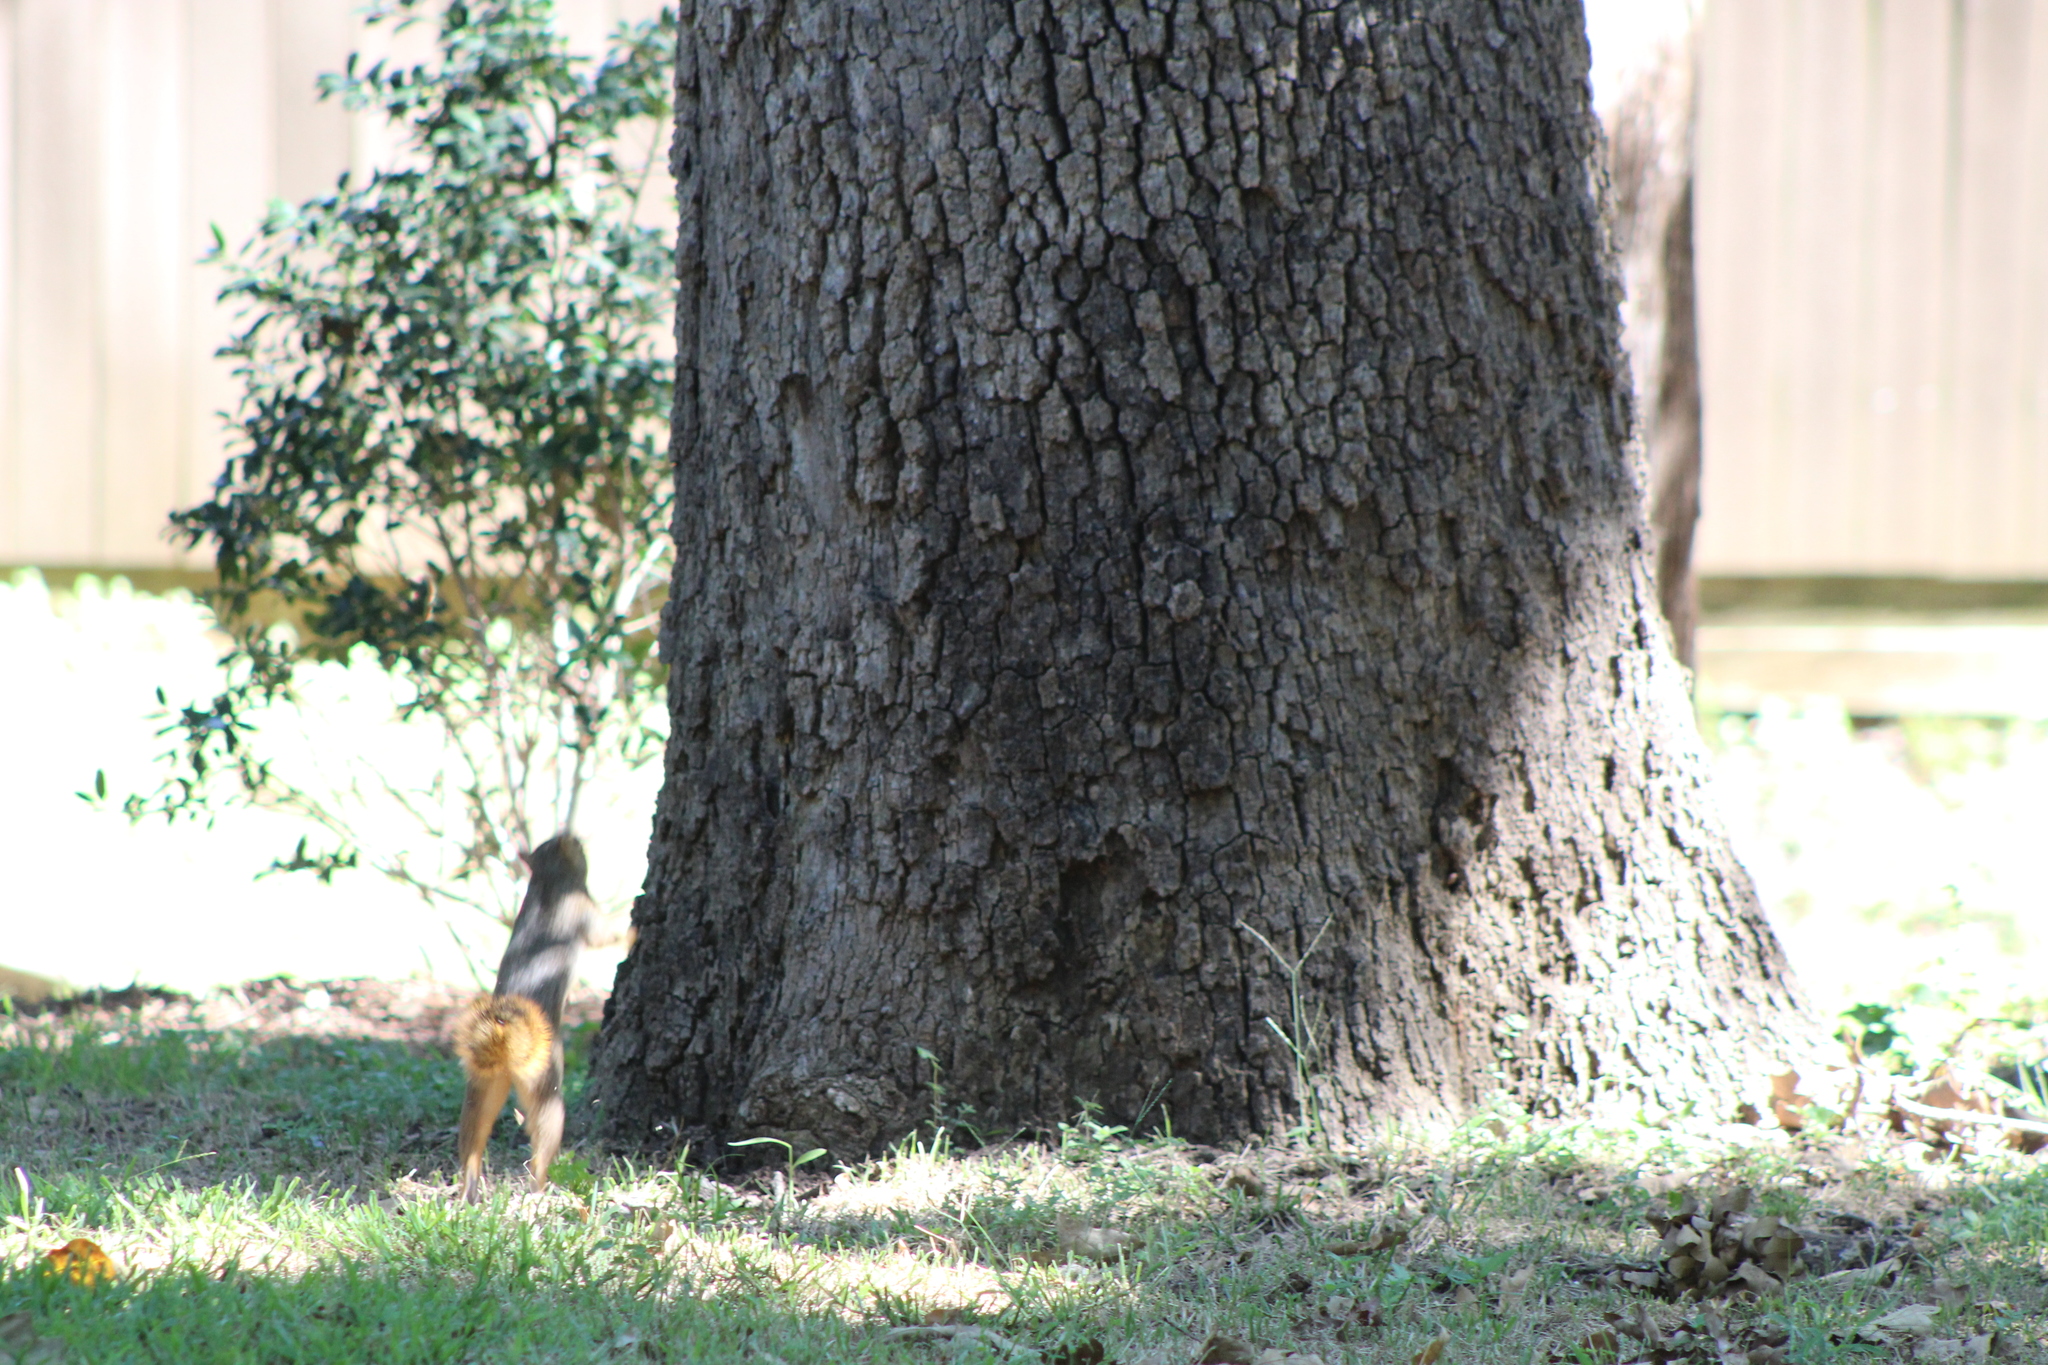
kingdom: Animalia
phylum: Chordata
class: Mammalia
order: Rodentia
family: Sciuridae
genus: Sciurus
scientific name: Sciurus niger
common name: Fox squirrel
